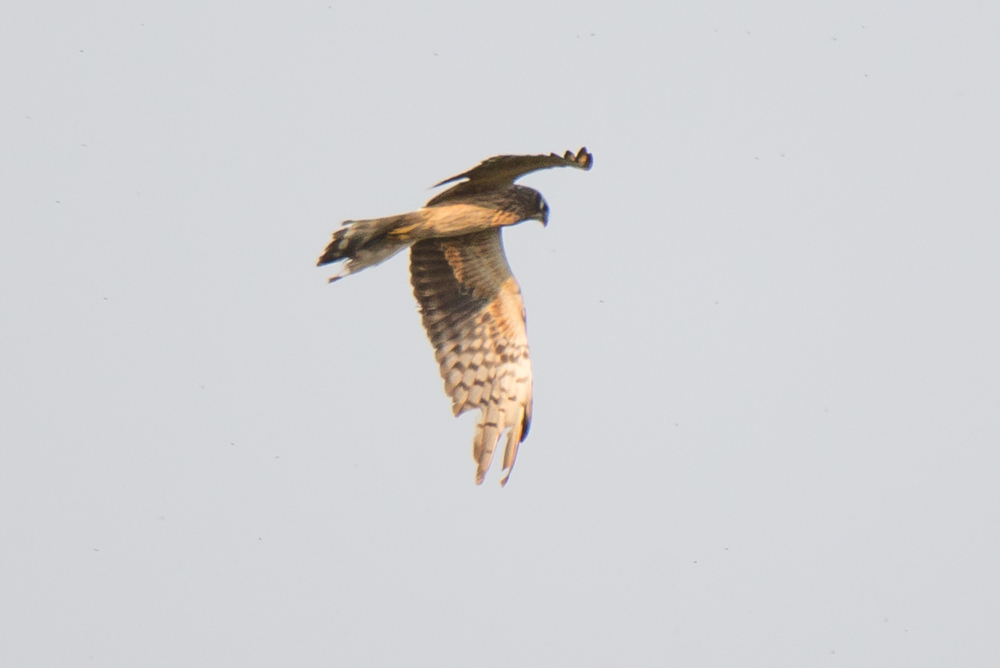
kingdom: Animalia
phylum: Chordata
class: Aves
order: Accipitriformes
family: Accipitridae
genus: Circus
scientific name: Circus pygargus
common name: Montagu's harrier
